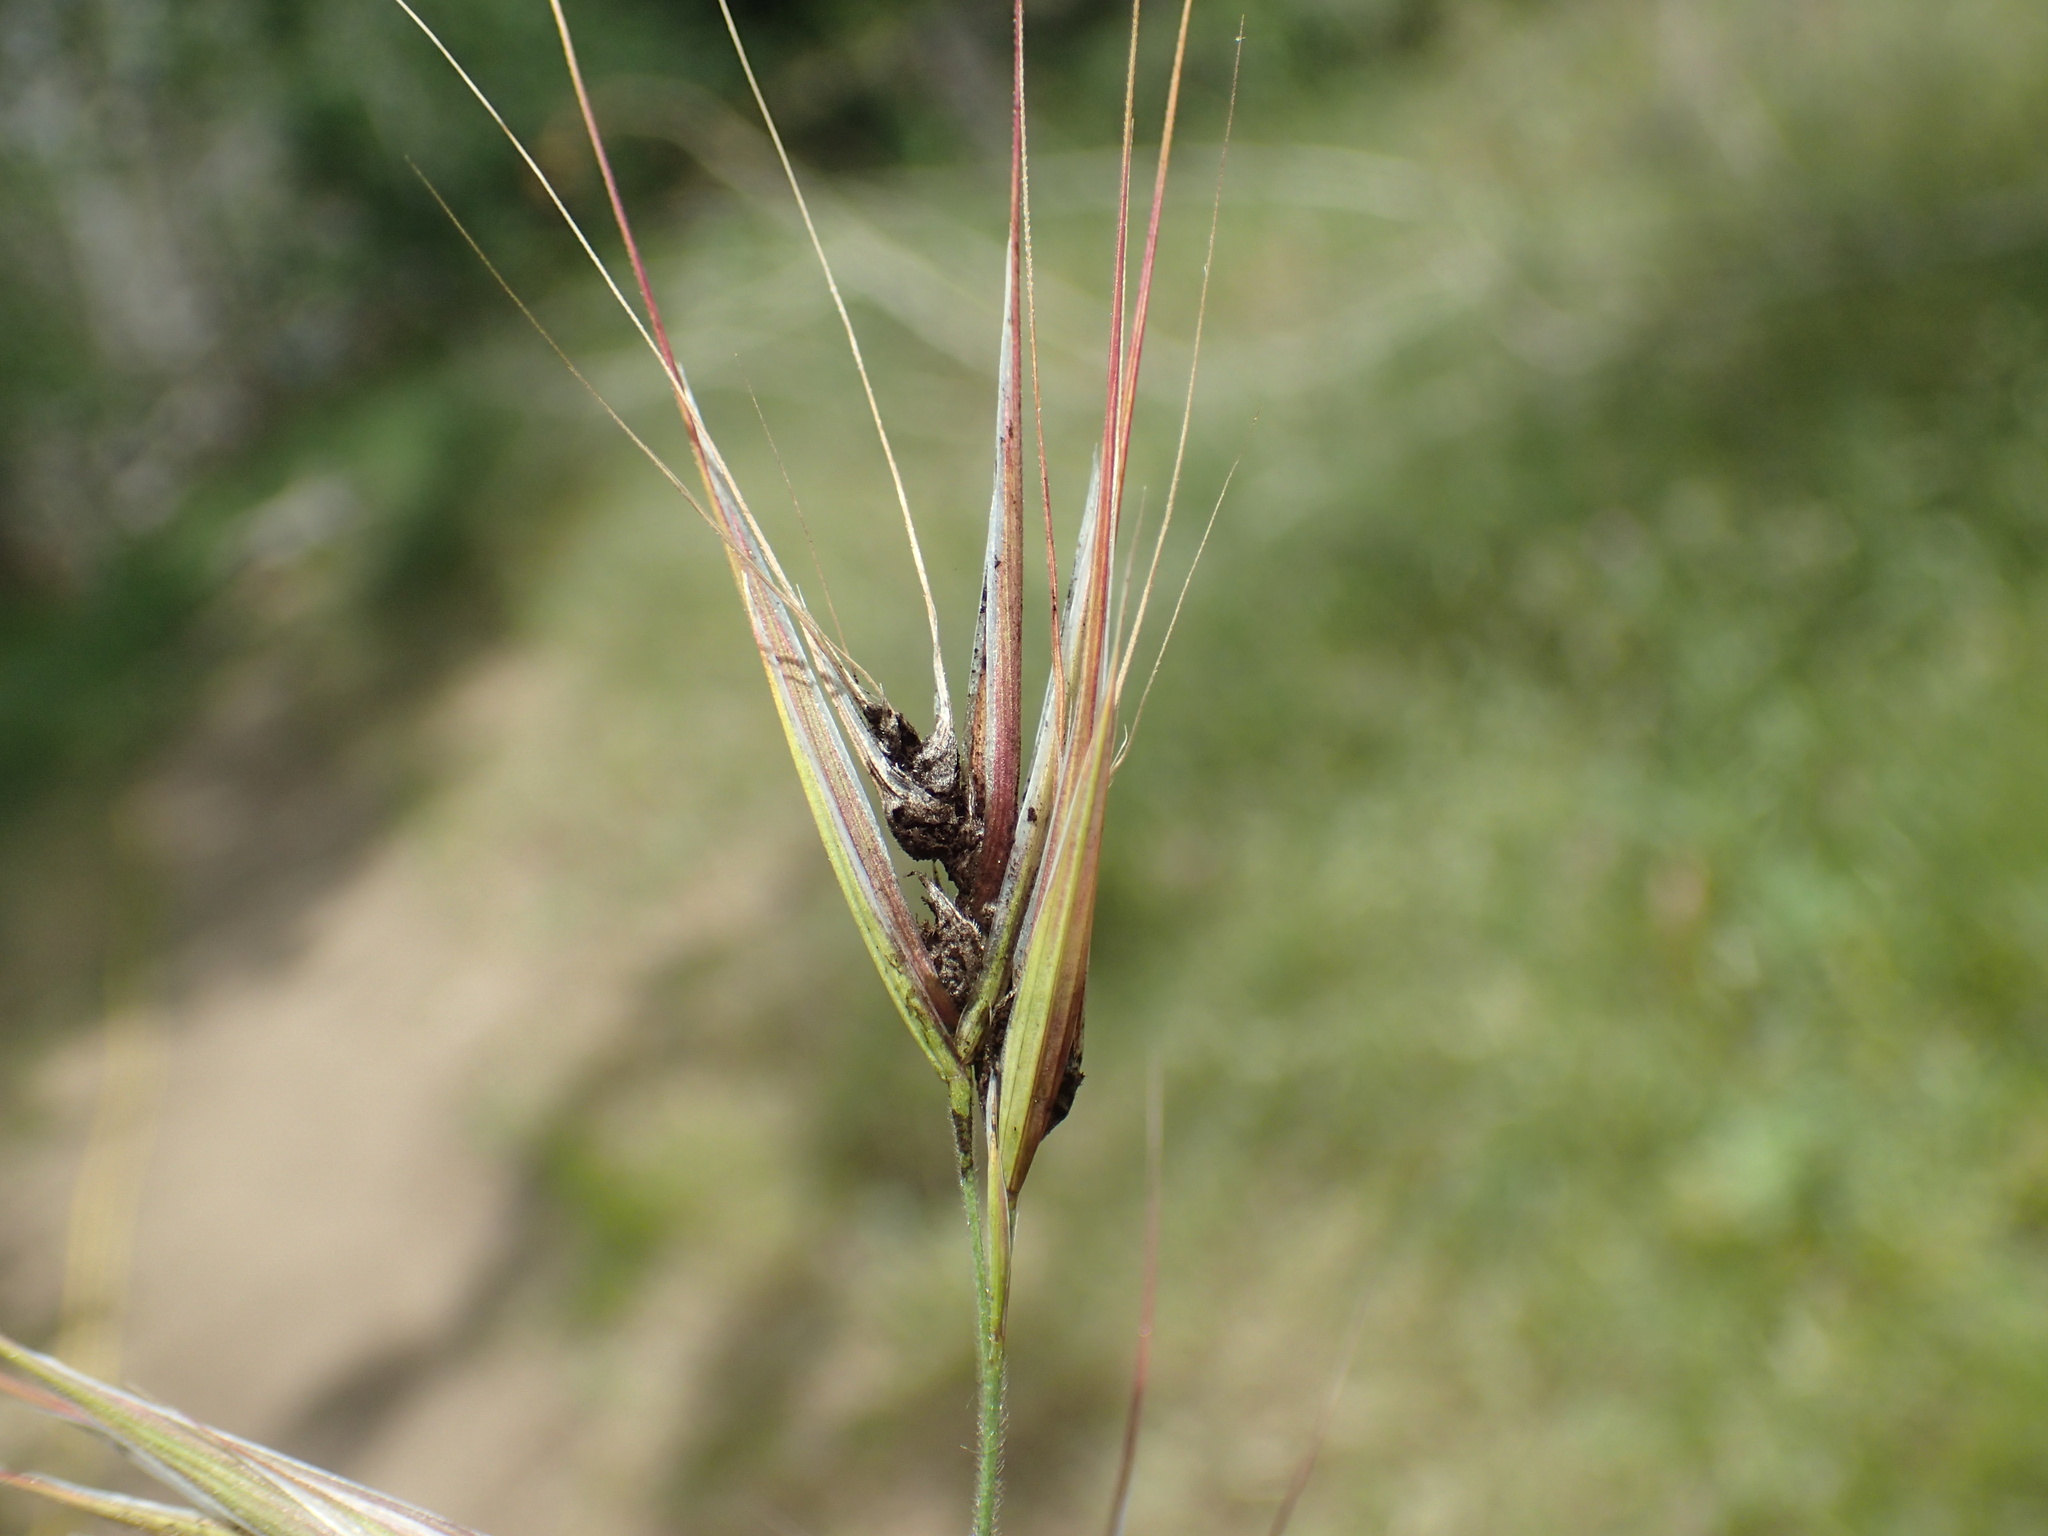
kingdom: Fungi
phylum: Basidiomycota
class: Ustilaginomycetes
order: Ustilaginales
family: Ustilaginaceae
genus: Ustilago
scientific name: Ustilago bullata
